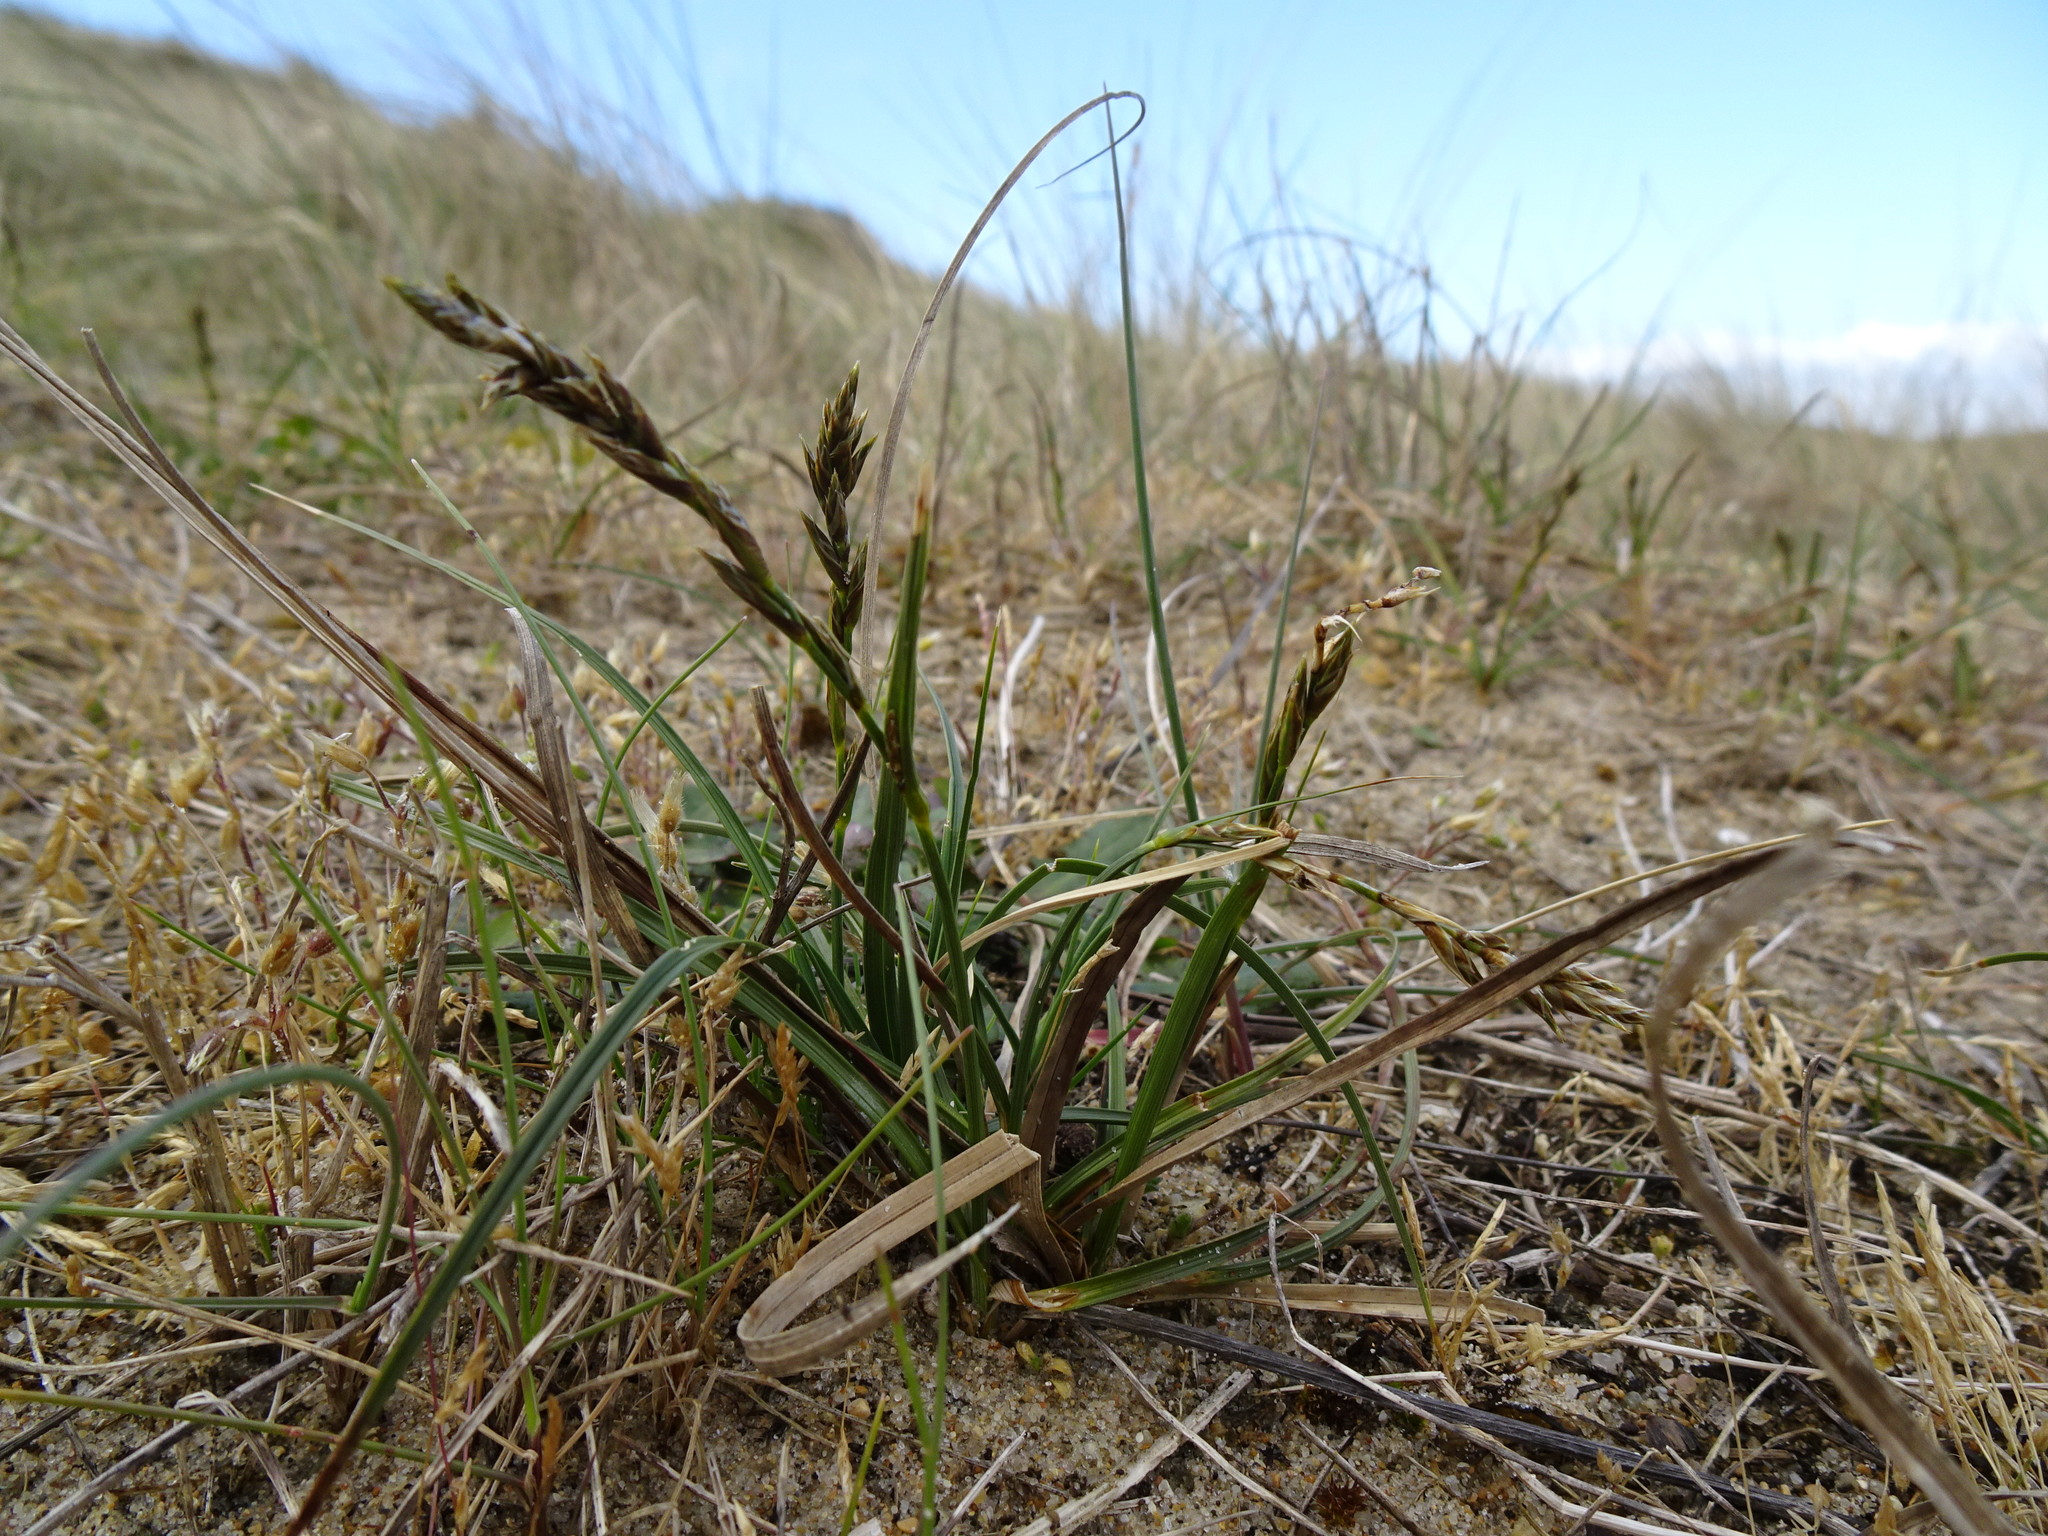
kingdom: Plantae
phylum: Tracheophyta
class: Liliopsida
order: Poales
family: Cyperaceae
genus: Carex
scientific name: Carex arenaria
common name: Sand sedge
